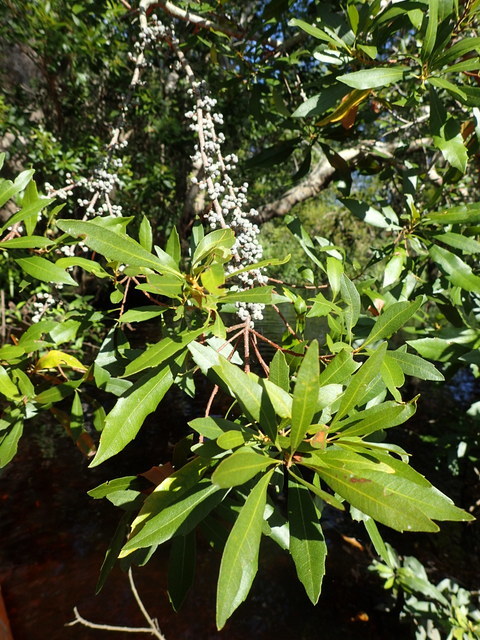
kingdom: Plantae
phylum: Tracheophyta
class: Magnoliopsida
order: Fagales
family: Myricaceae
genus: Morella
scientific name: Morella cerifera
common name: Wax myrtle
